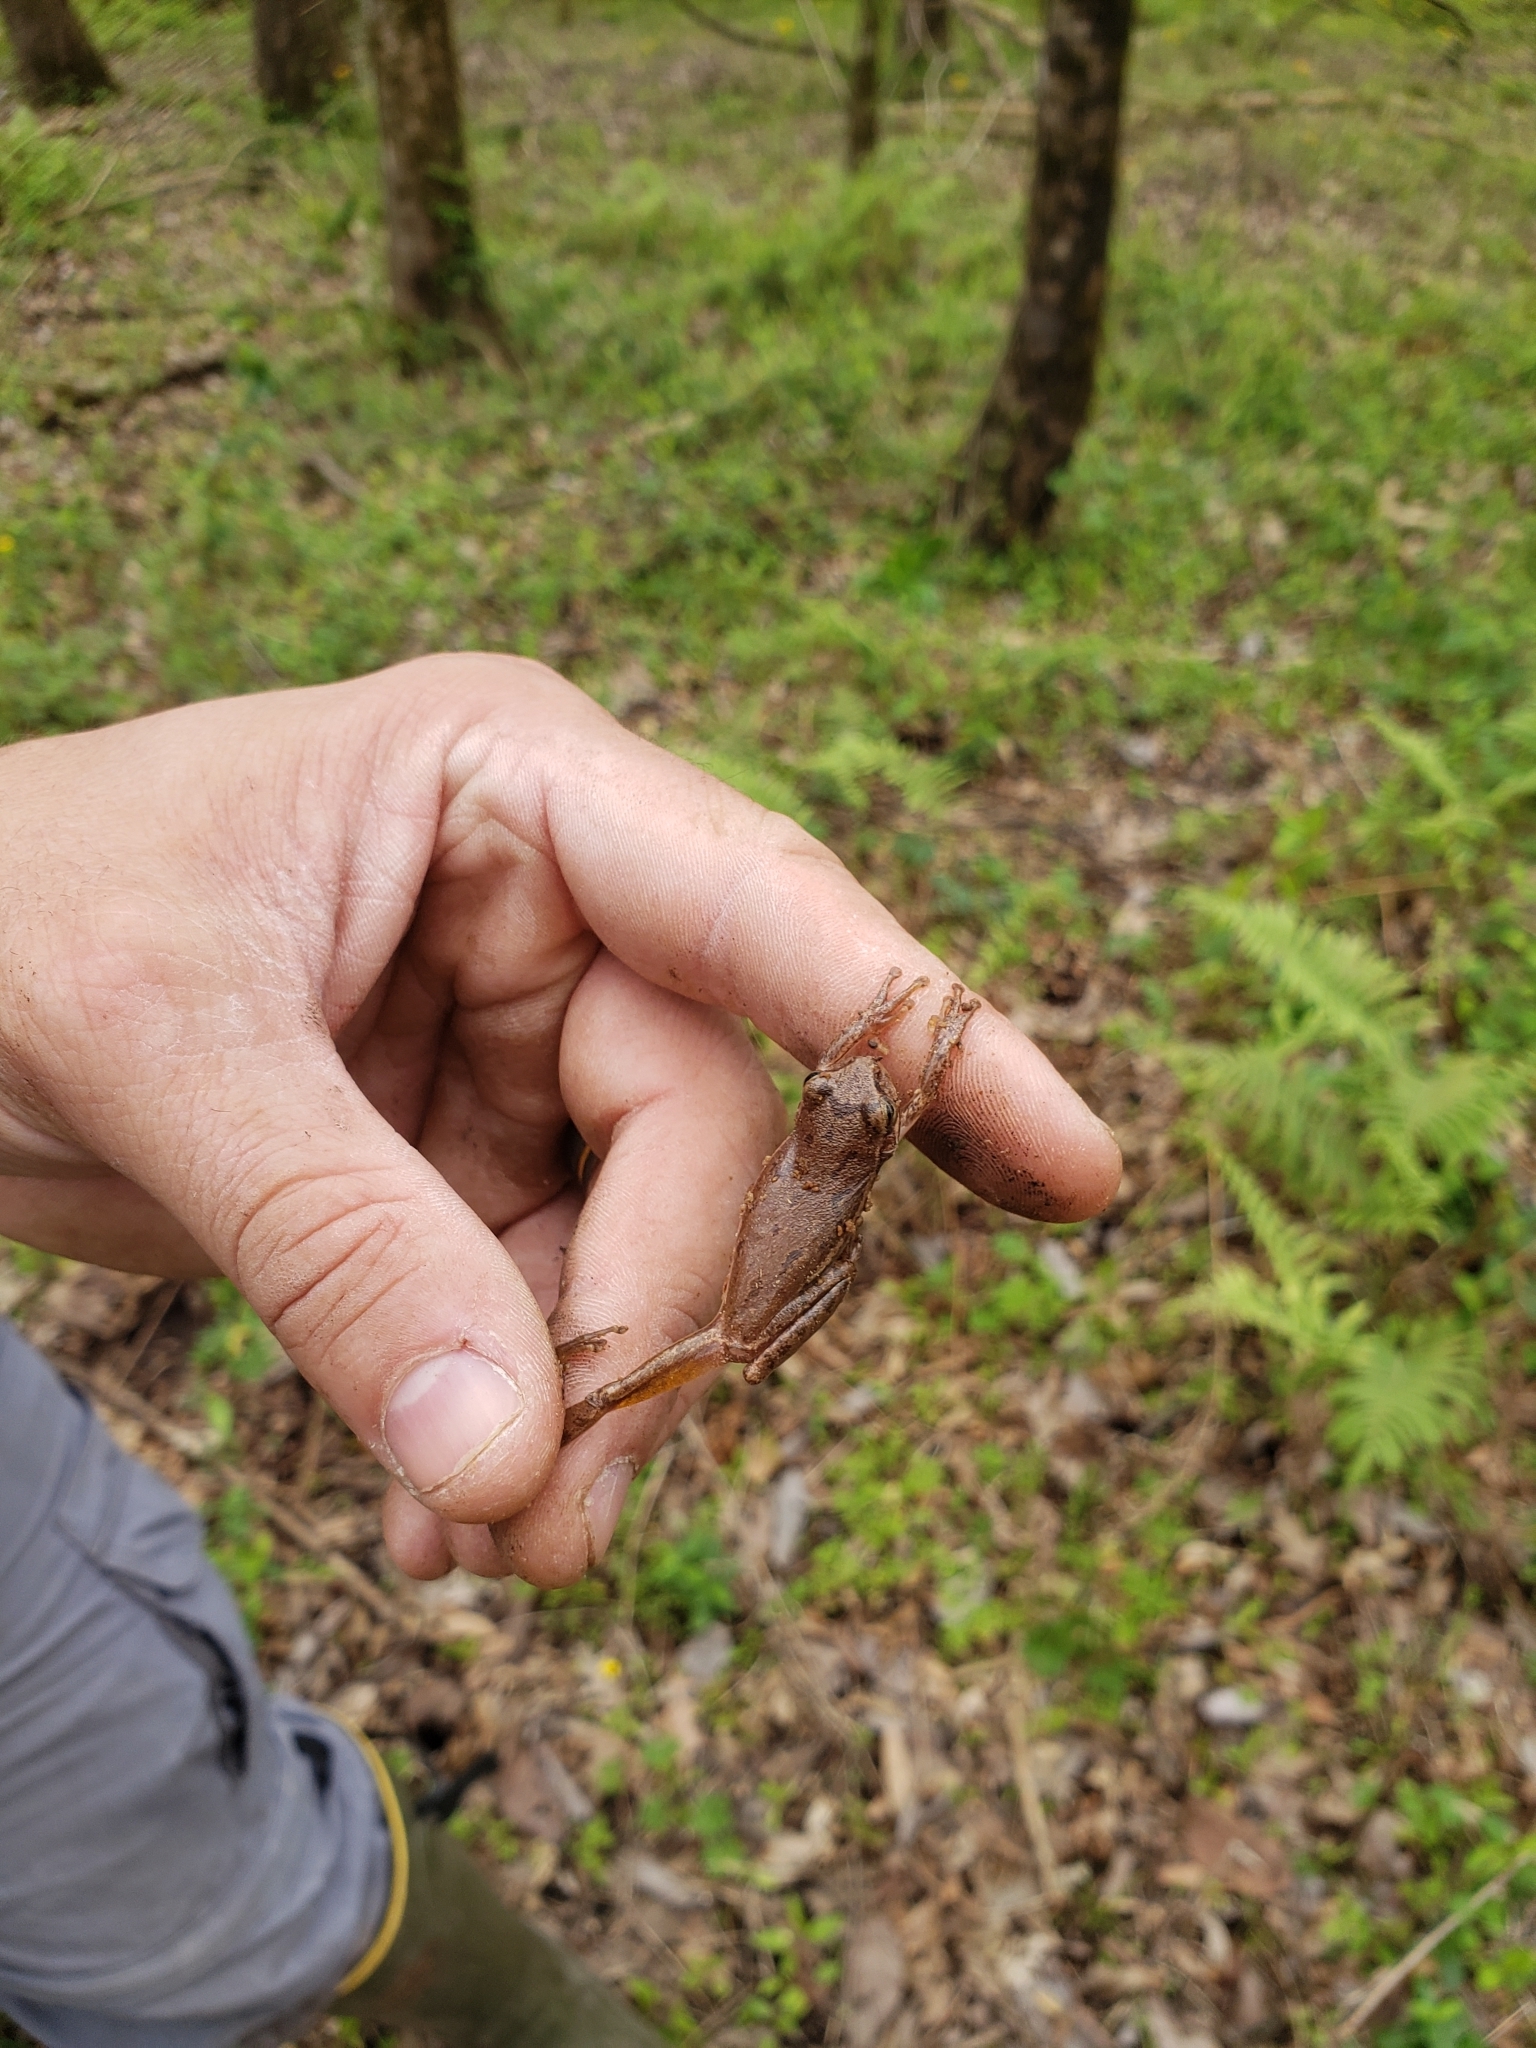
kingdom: Animalia
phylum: Chordata
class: Amphibia
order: Anura
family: Hylidae
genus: Dryophytes
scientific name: Dryophytes squirellus
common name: Squirrel treefrog
